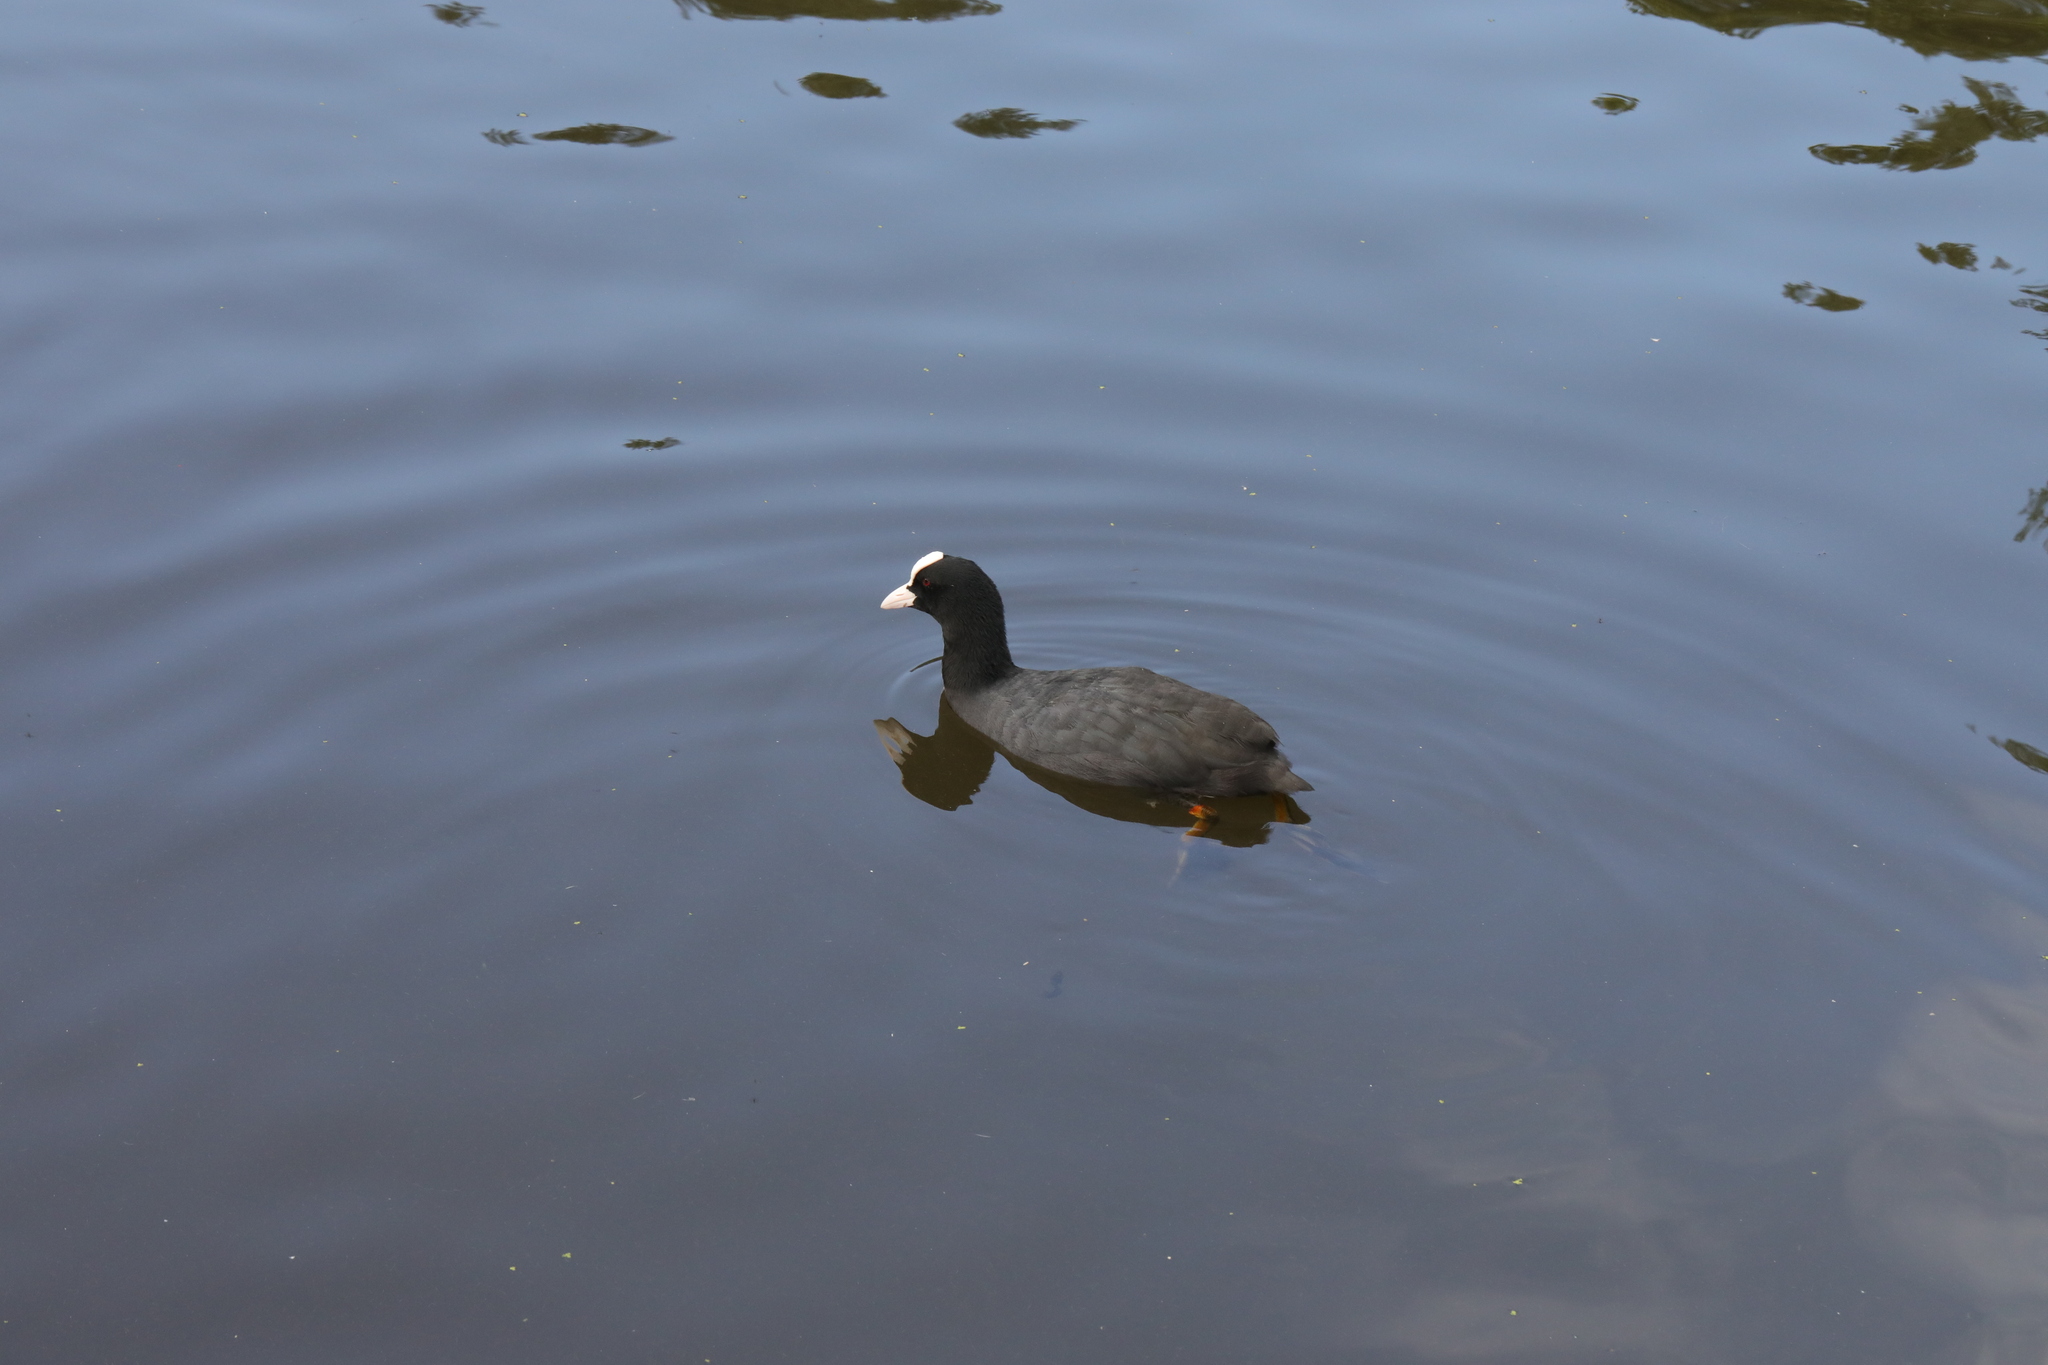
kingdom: Animalia
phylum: Chordata
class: Aves
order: Gruiformes
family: Rallidae
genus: Fulica
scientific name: Fulica atra
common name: Eurasian coot
